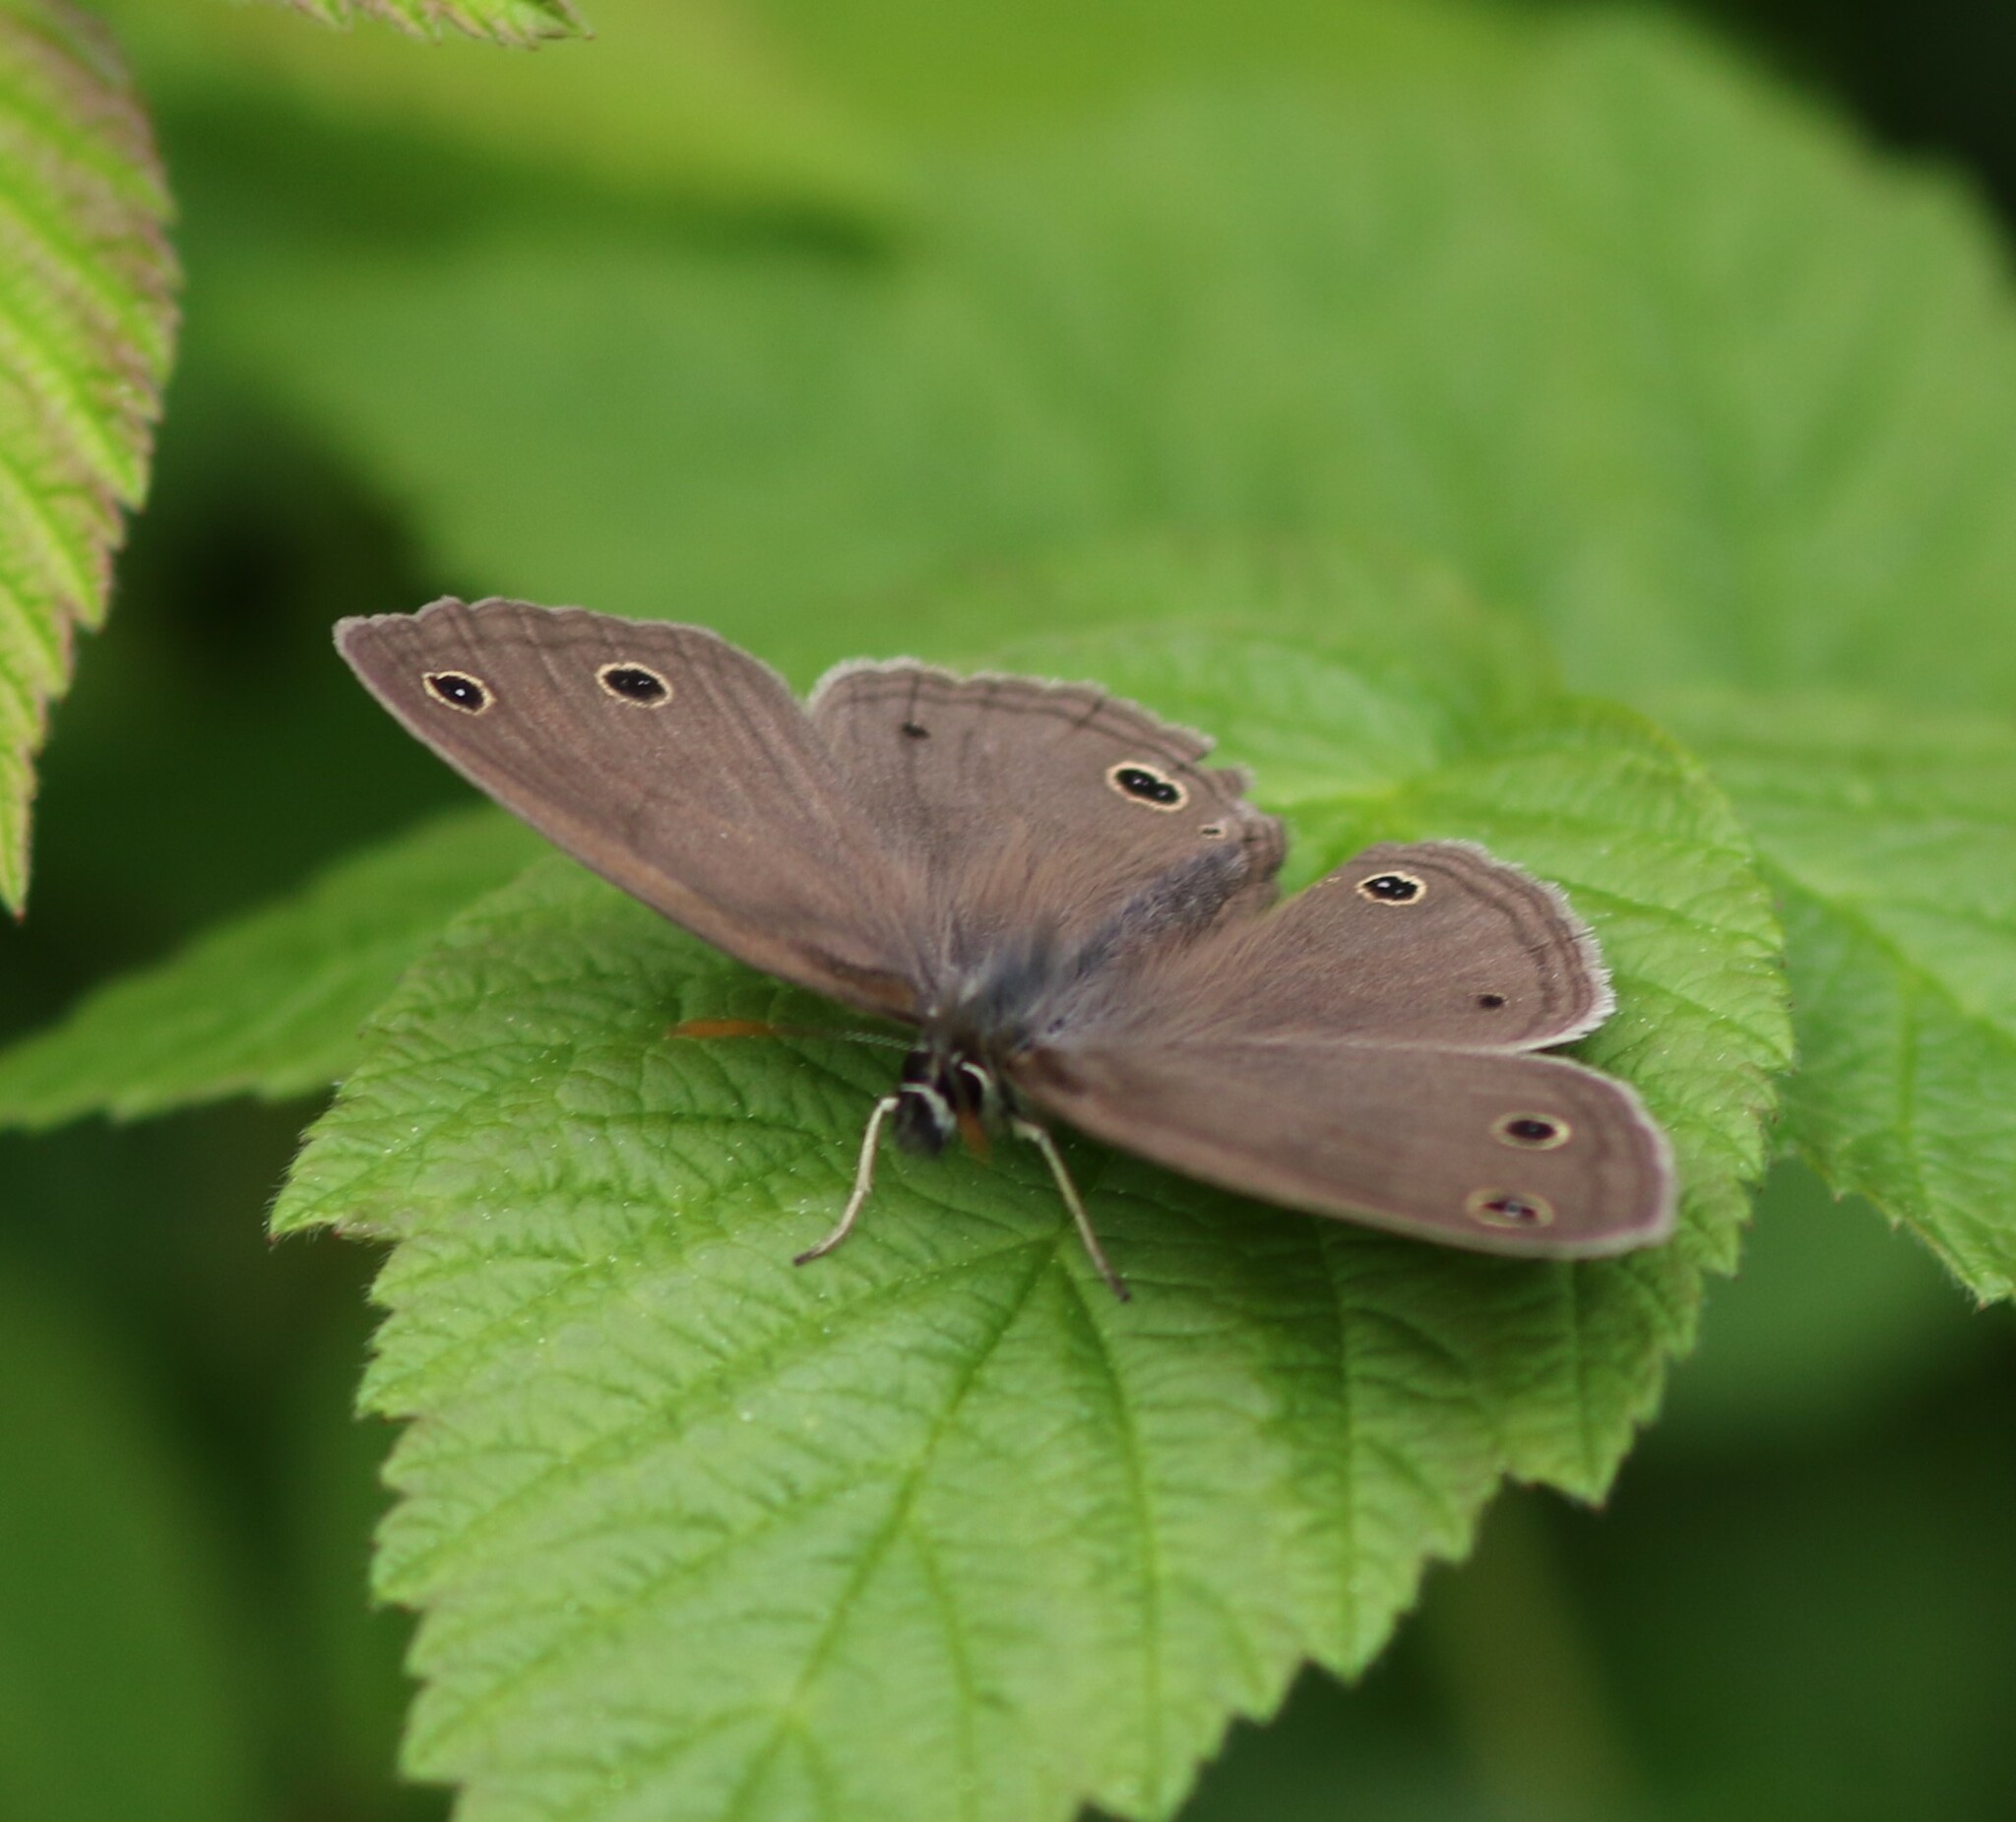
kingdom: Animalia
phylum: Arthropoda
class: Insecta
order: Lepidoptera
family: Nymphalidae
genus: Euptychia
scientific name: Euptychia cymela
